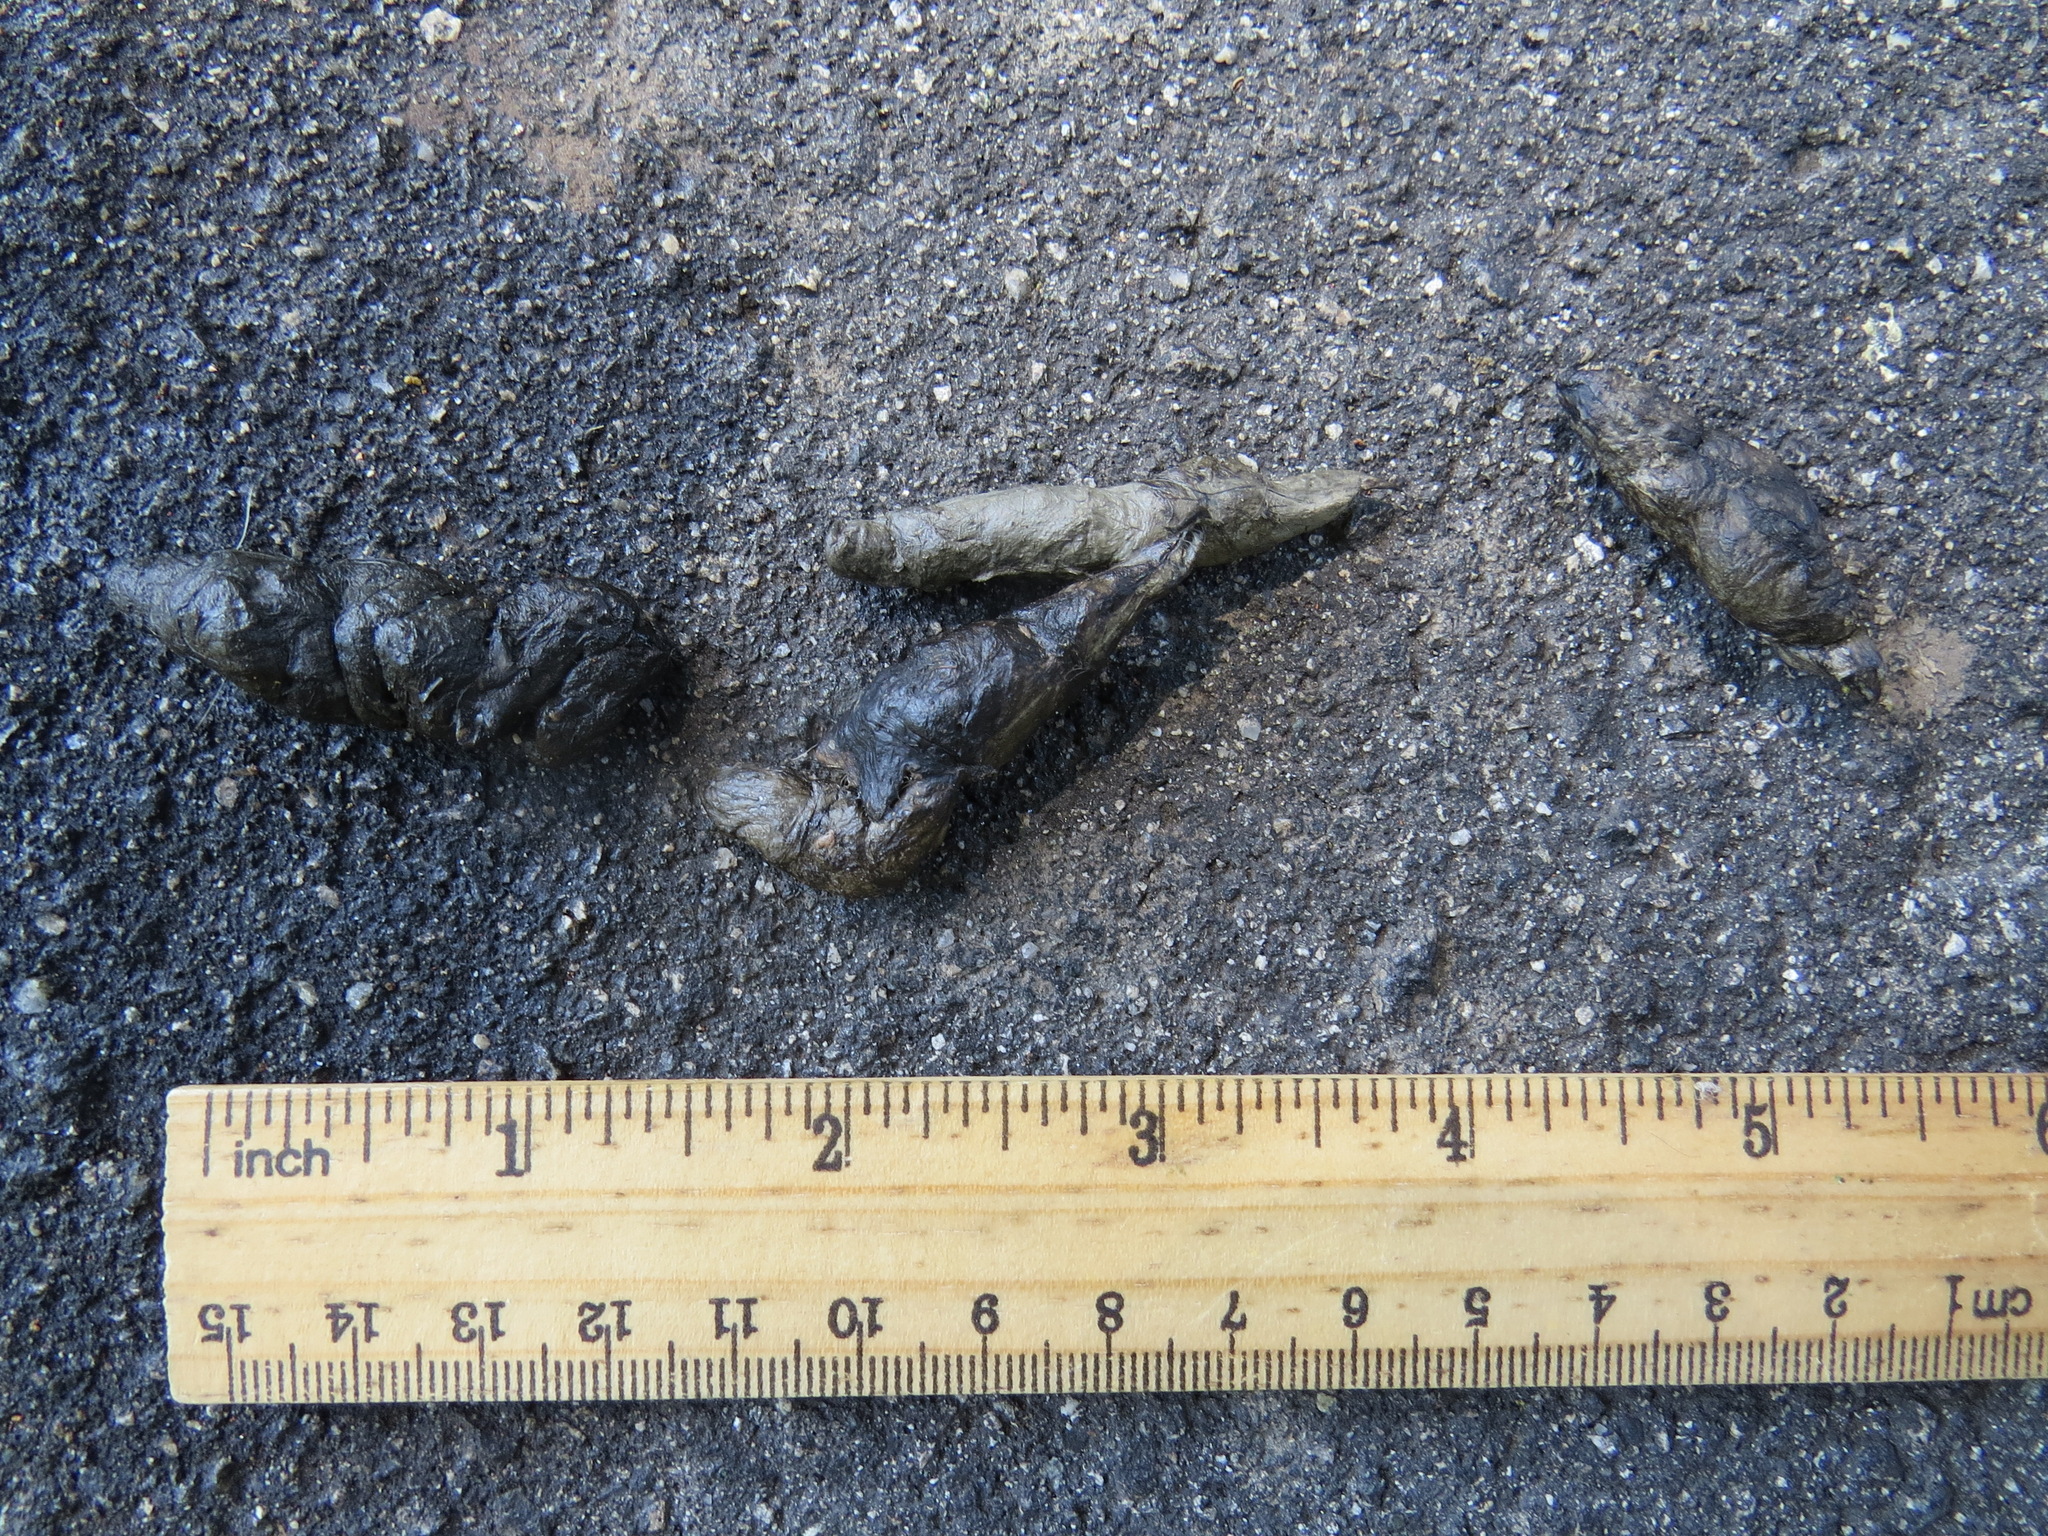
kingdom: Animalia
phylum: Chordata
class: Mammalia
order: Carnivora
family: Canidae
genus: Urocyon
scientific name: Urocyon cinereoargenteus
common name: Gray fox
